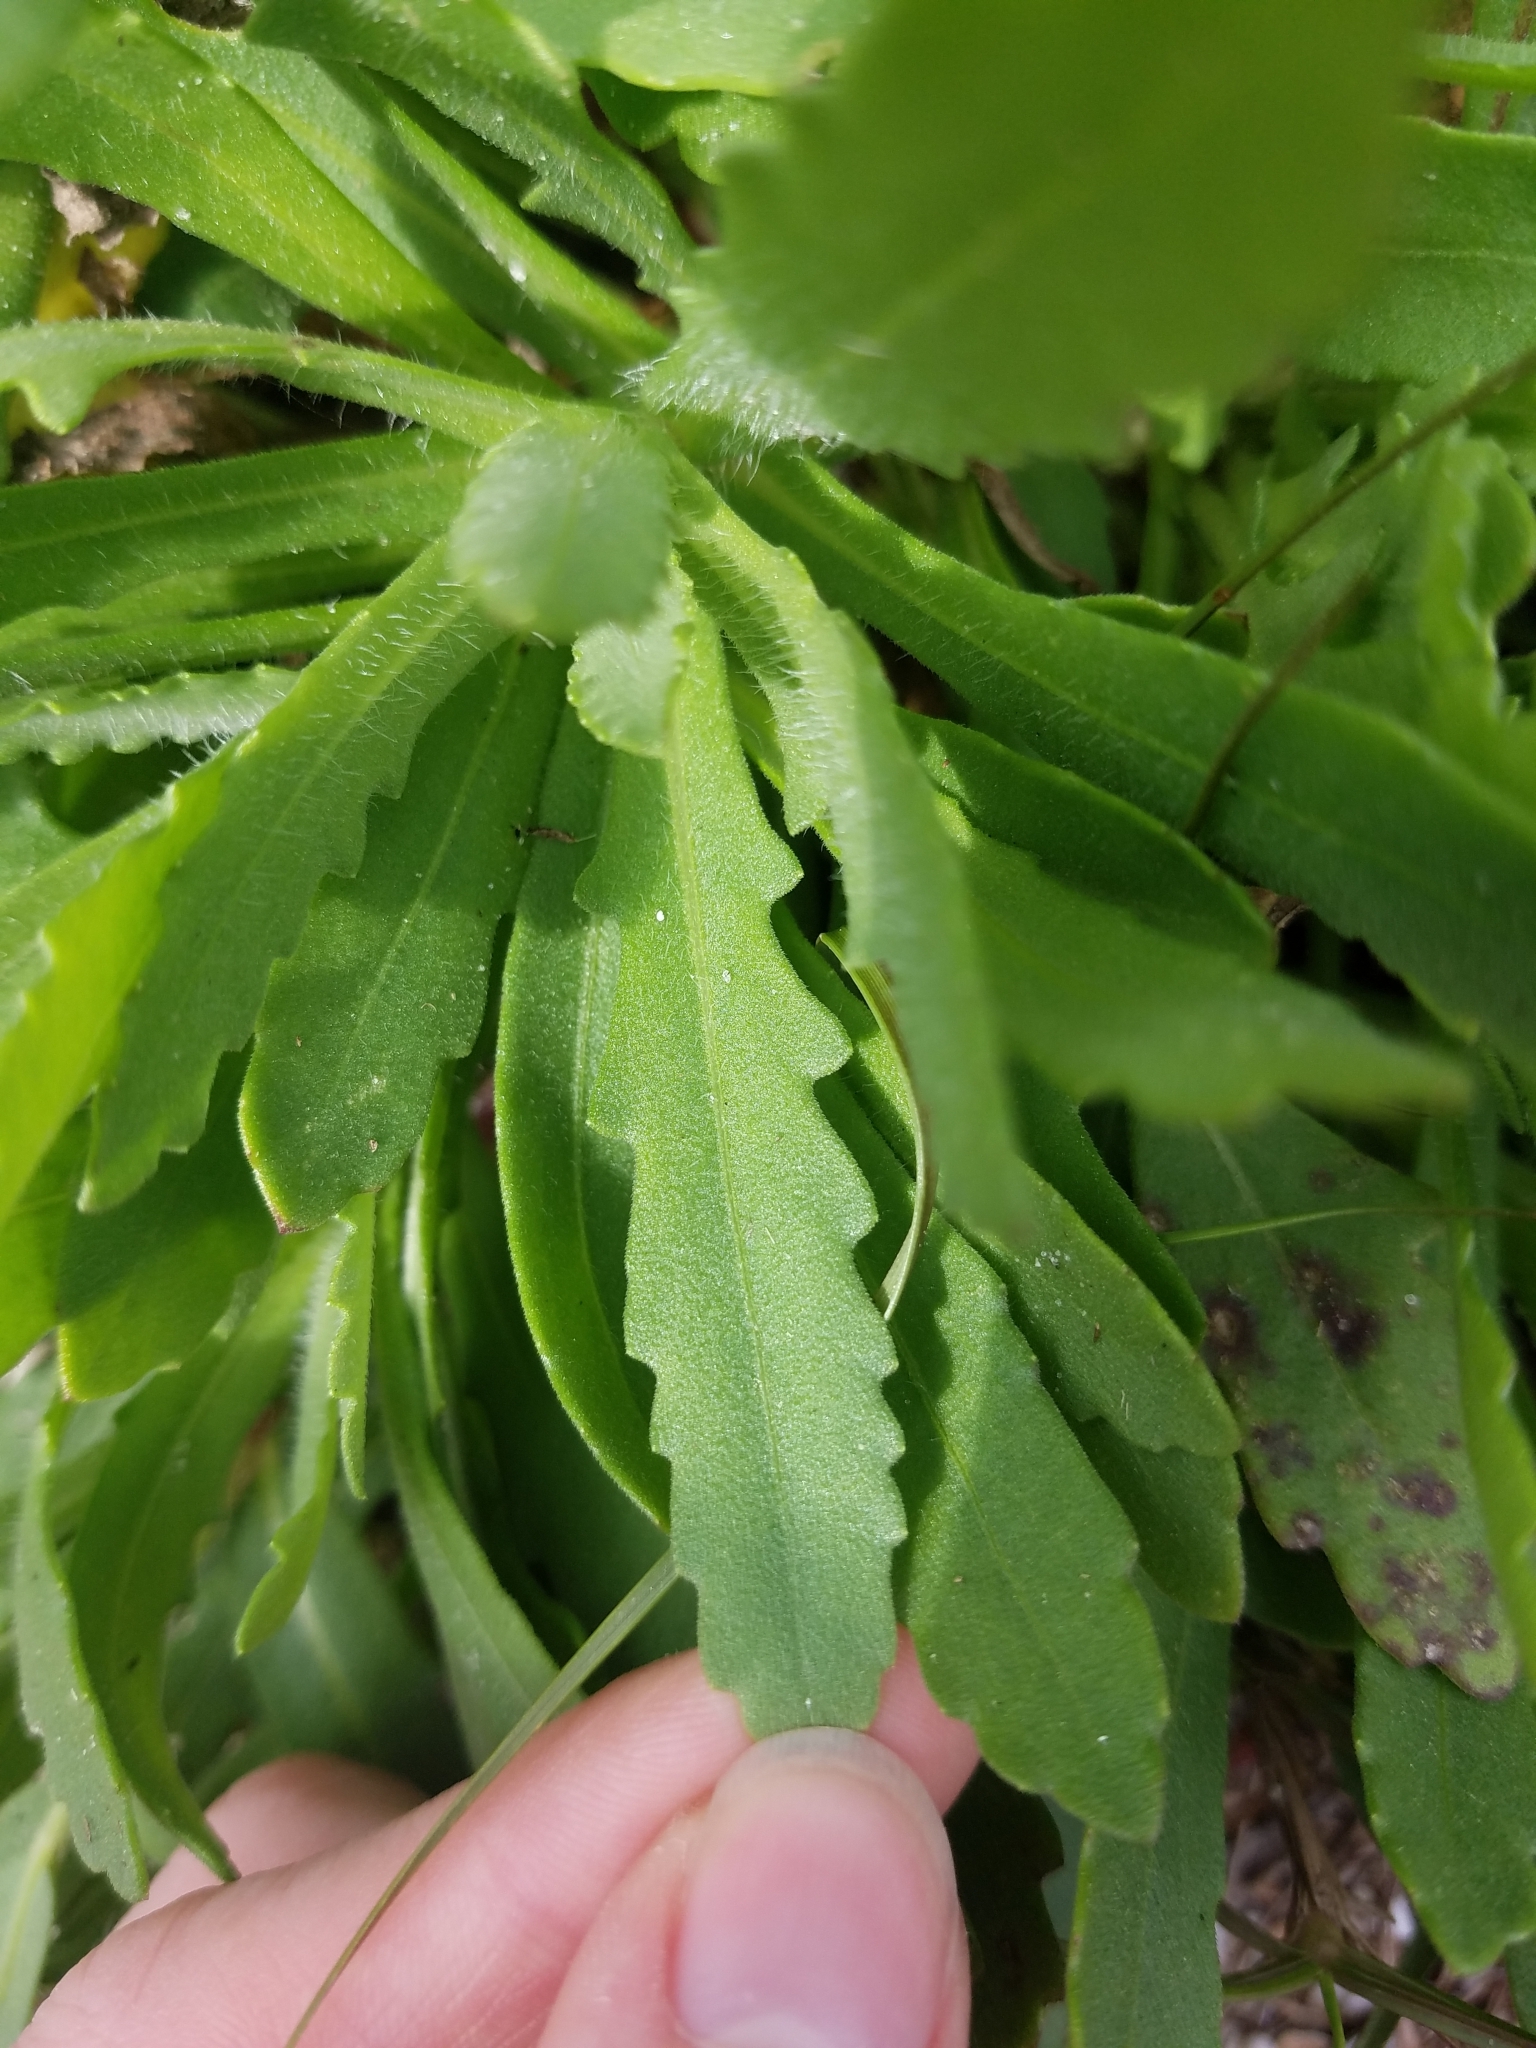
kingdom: Plantae
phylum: Tracheophyta
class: Magnoliopsida
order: Asterales
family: Asteraceae
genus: Gaillardia
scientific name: Gaillardia pulchella
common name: Firewheel
